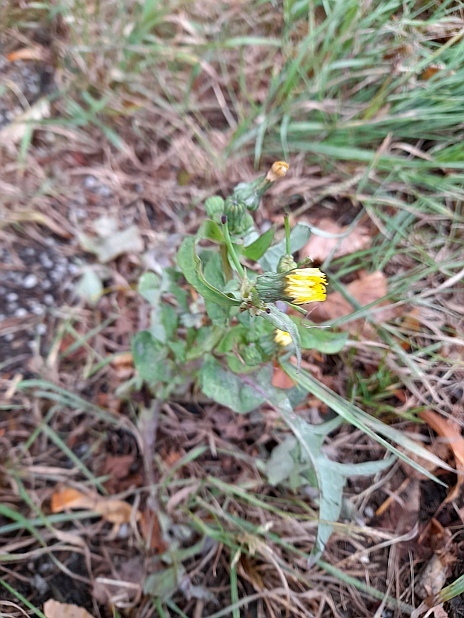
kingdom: Plantae
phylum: Tracheophyta
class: Magnoliopsida
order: Asterales
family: Asteraceae
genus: Sonchus
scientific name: Sonchus oleraceus
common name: Common sowthistle
